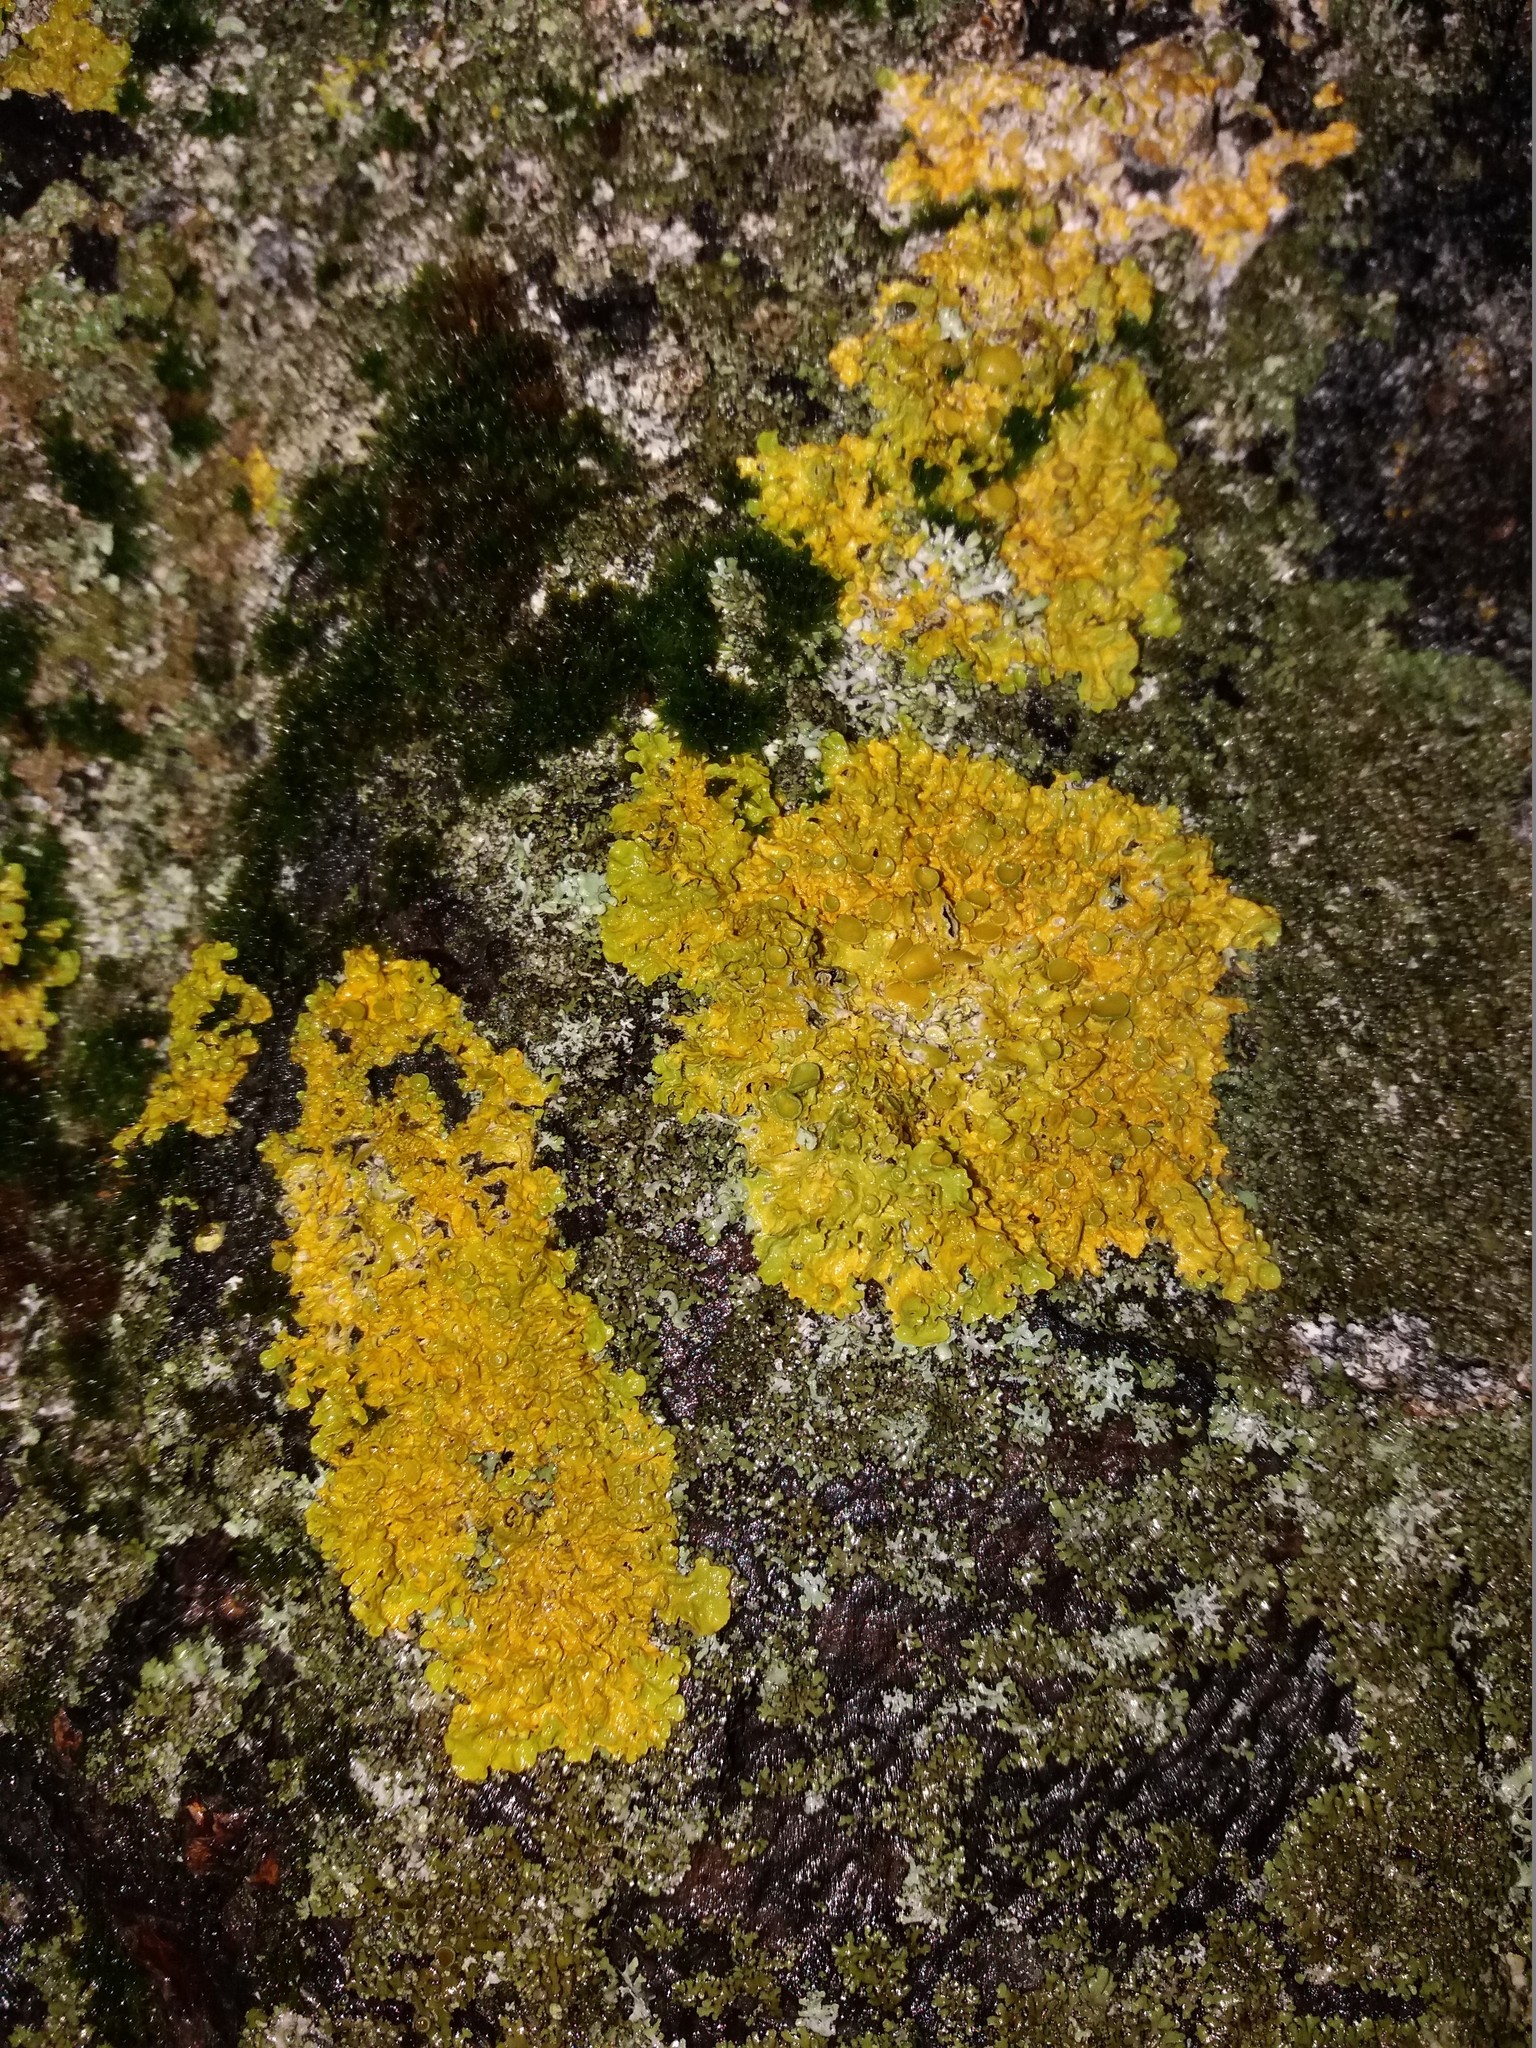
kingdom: Fungi
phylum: Ascomycota
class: Lecanoromycetes
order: Teloschistales
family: Teloschistaceae
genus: Xanthoria
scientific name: Xanthoria parietina
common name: Common orange lichen
